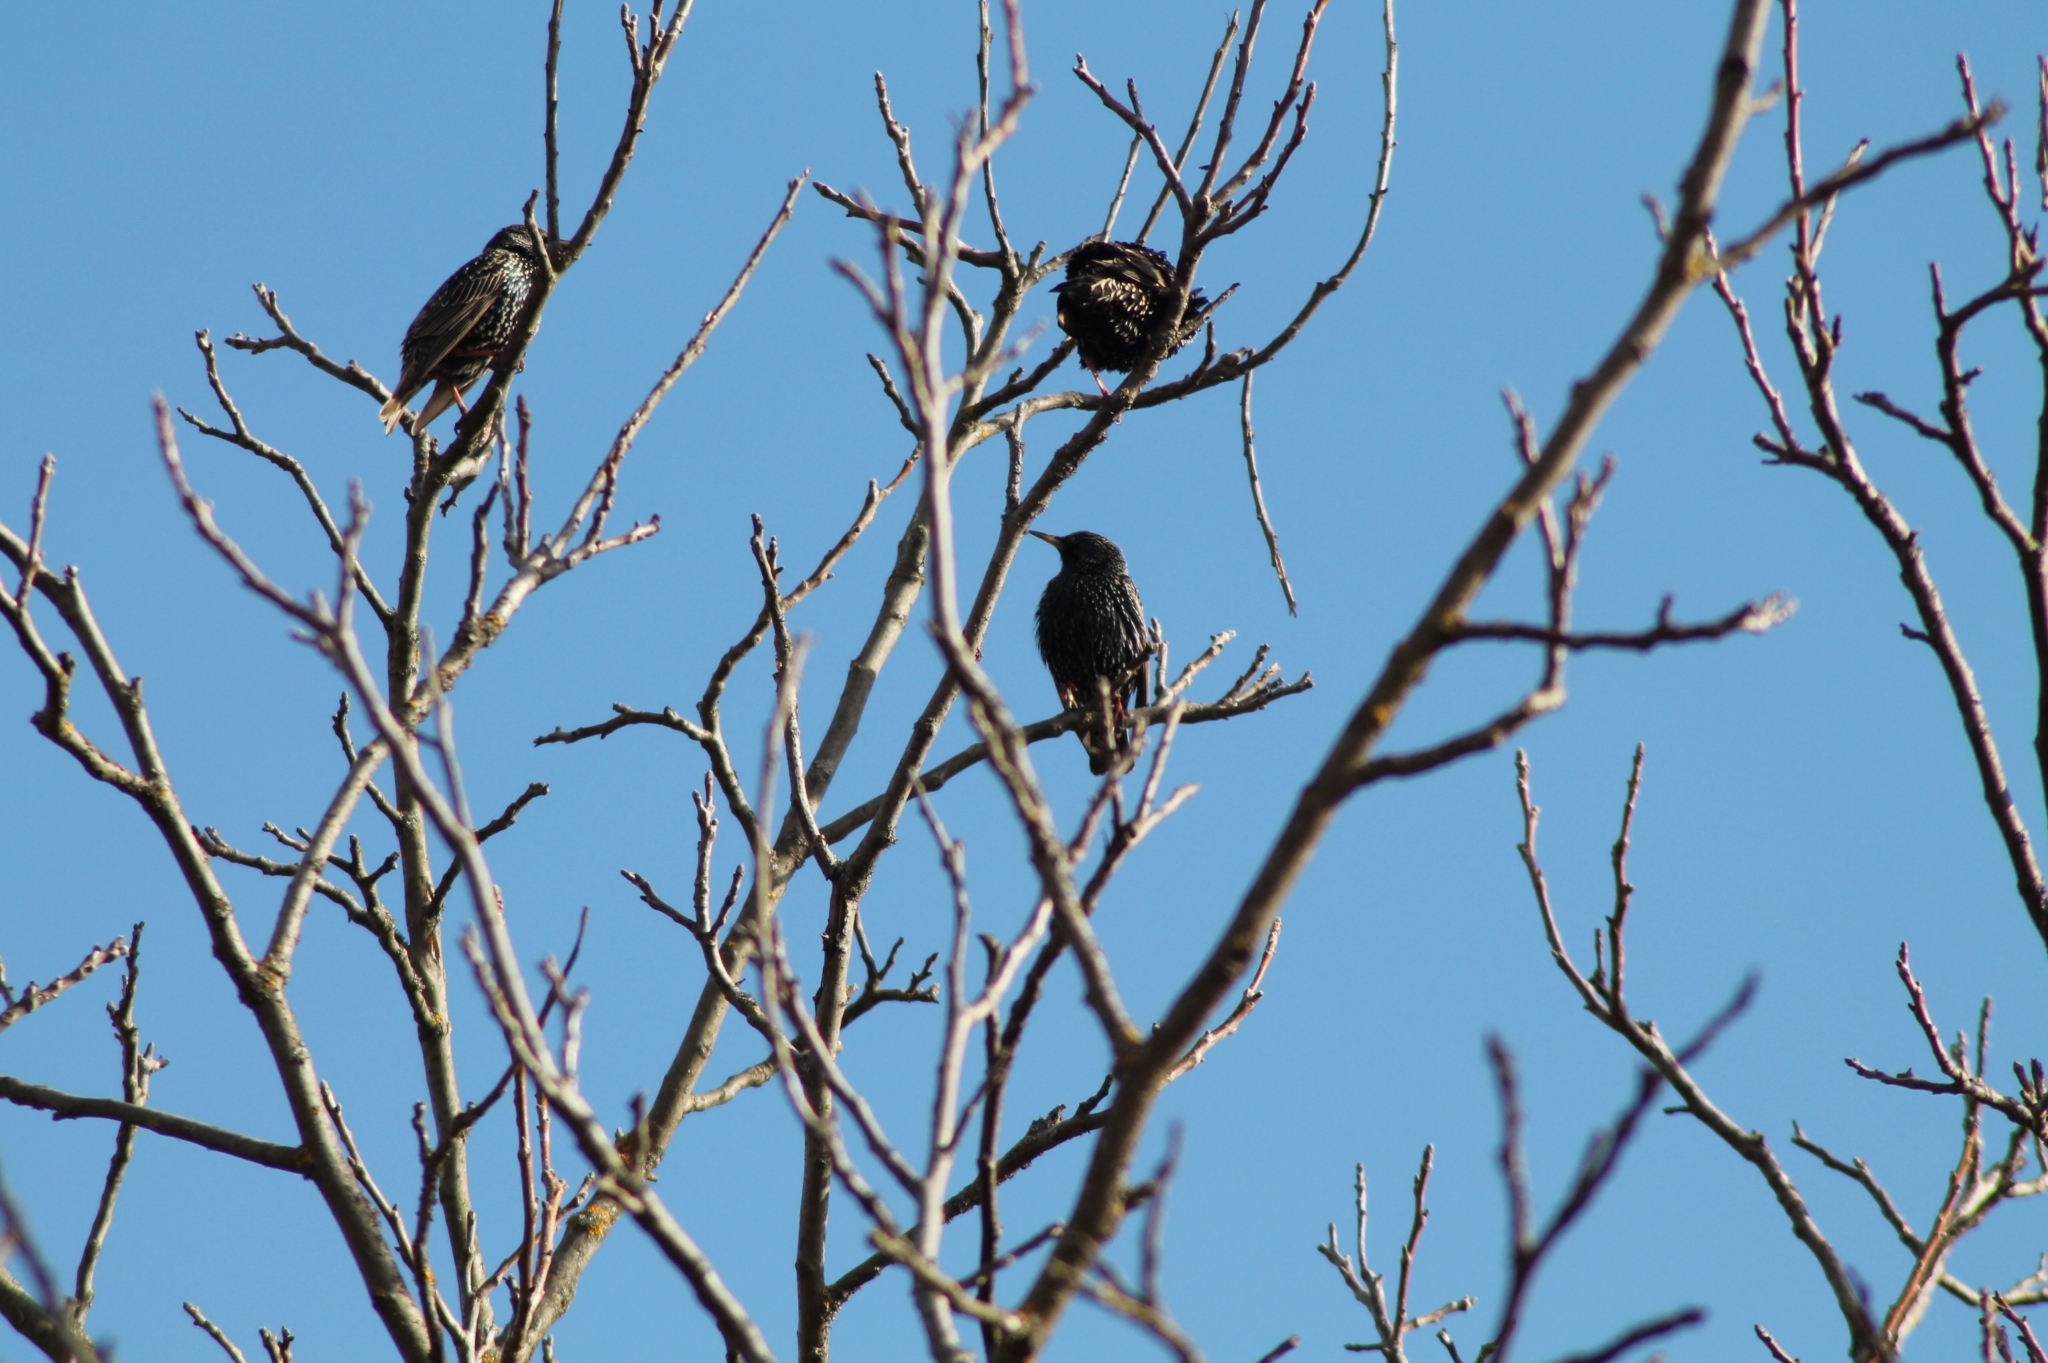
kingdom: Animalia
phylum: Chordata
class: Aves
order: Passeriformes
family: Sturnidae
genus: Sturnus
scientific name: Sturnus vulgaris
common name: Common starling
